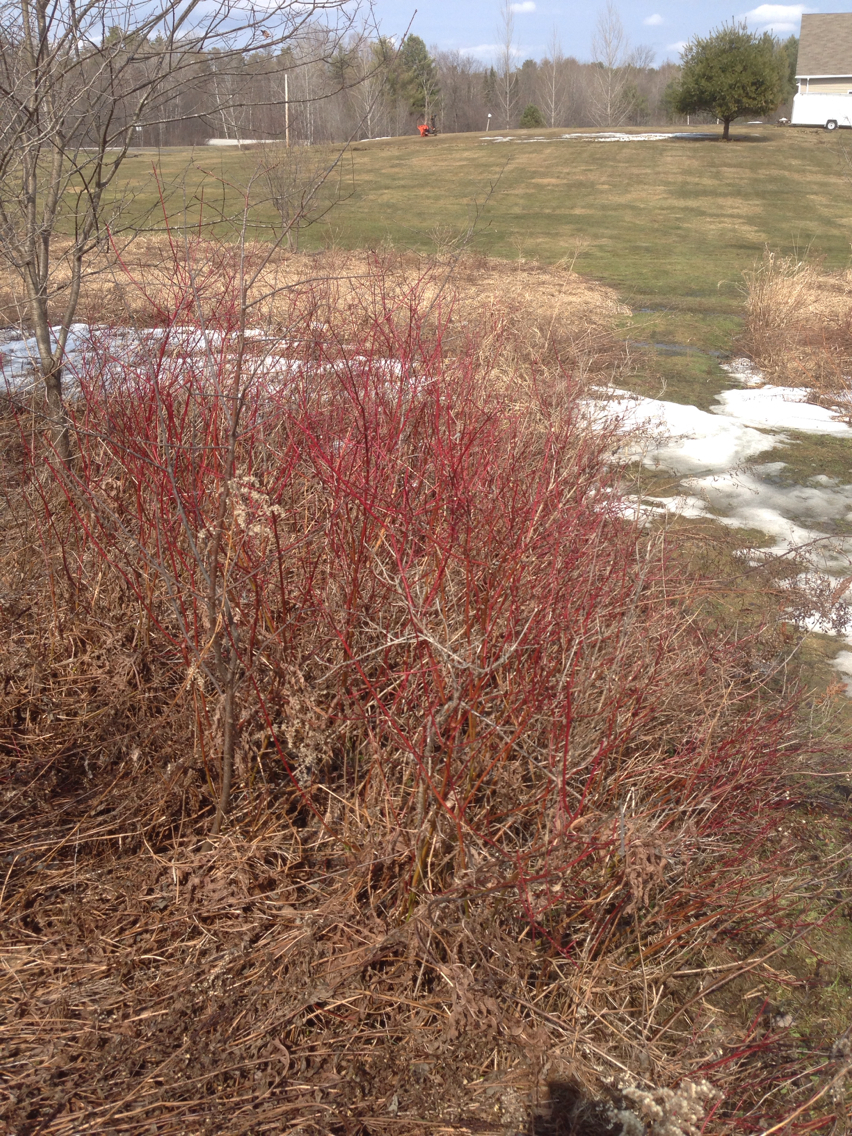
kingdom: Plantae
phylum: Tracheophyta
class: Magnoliopsida
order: Cornales
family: Cornaceae
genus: Cornus
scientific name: Cornus sericea
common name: Red-osier dogwood
